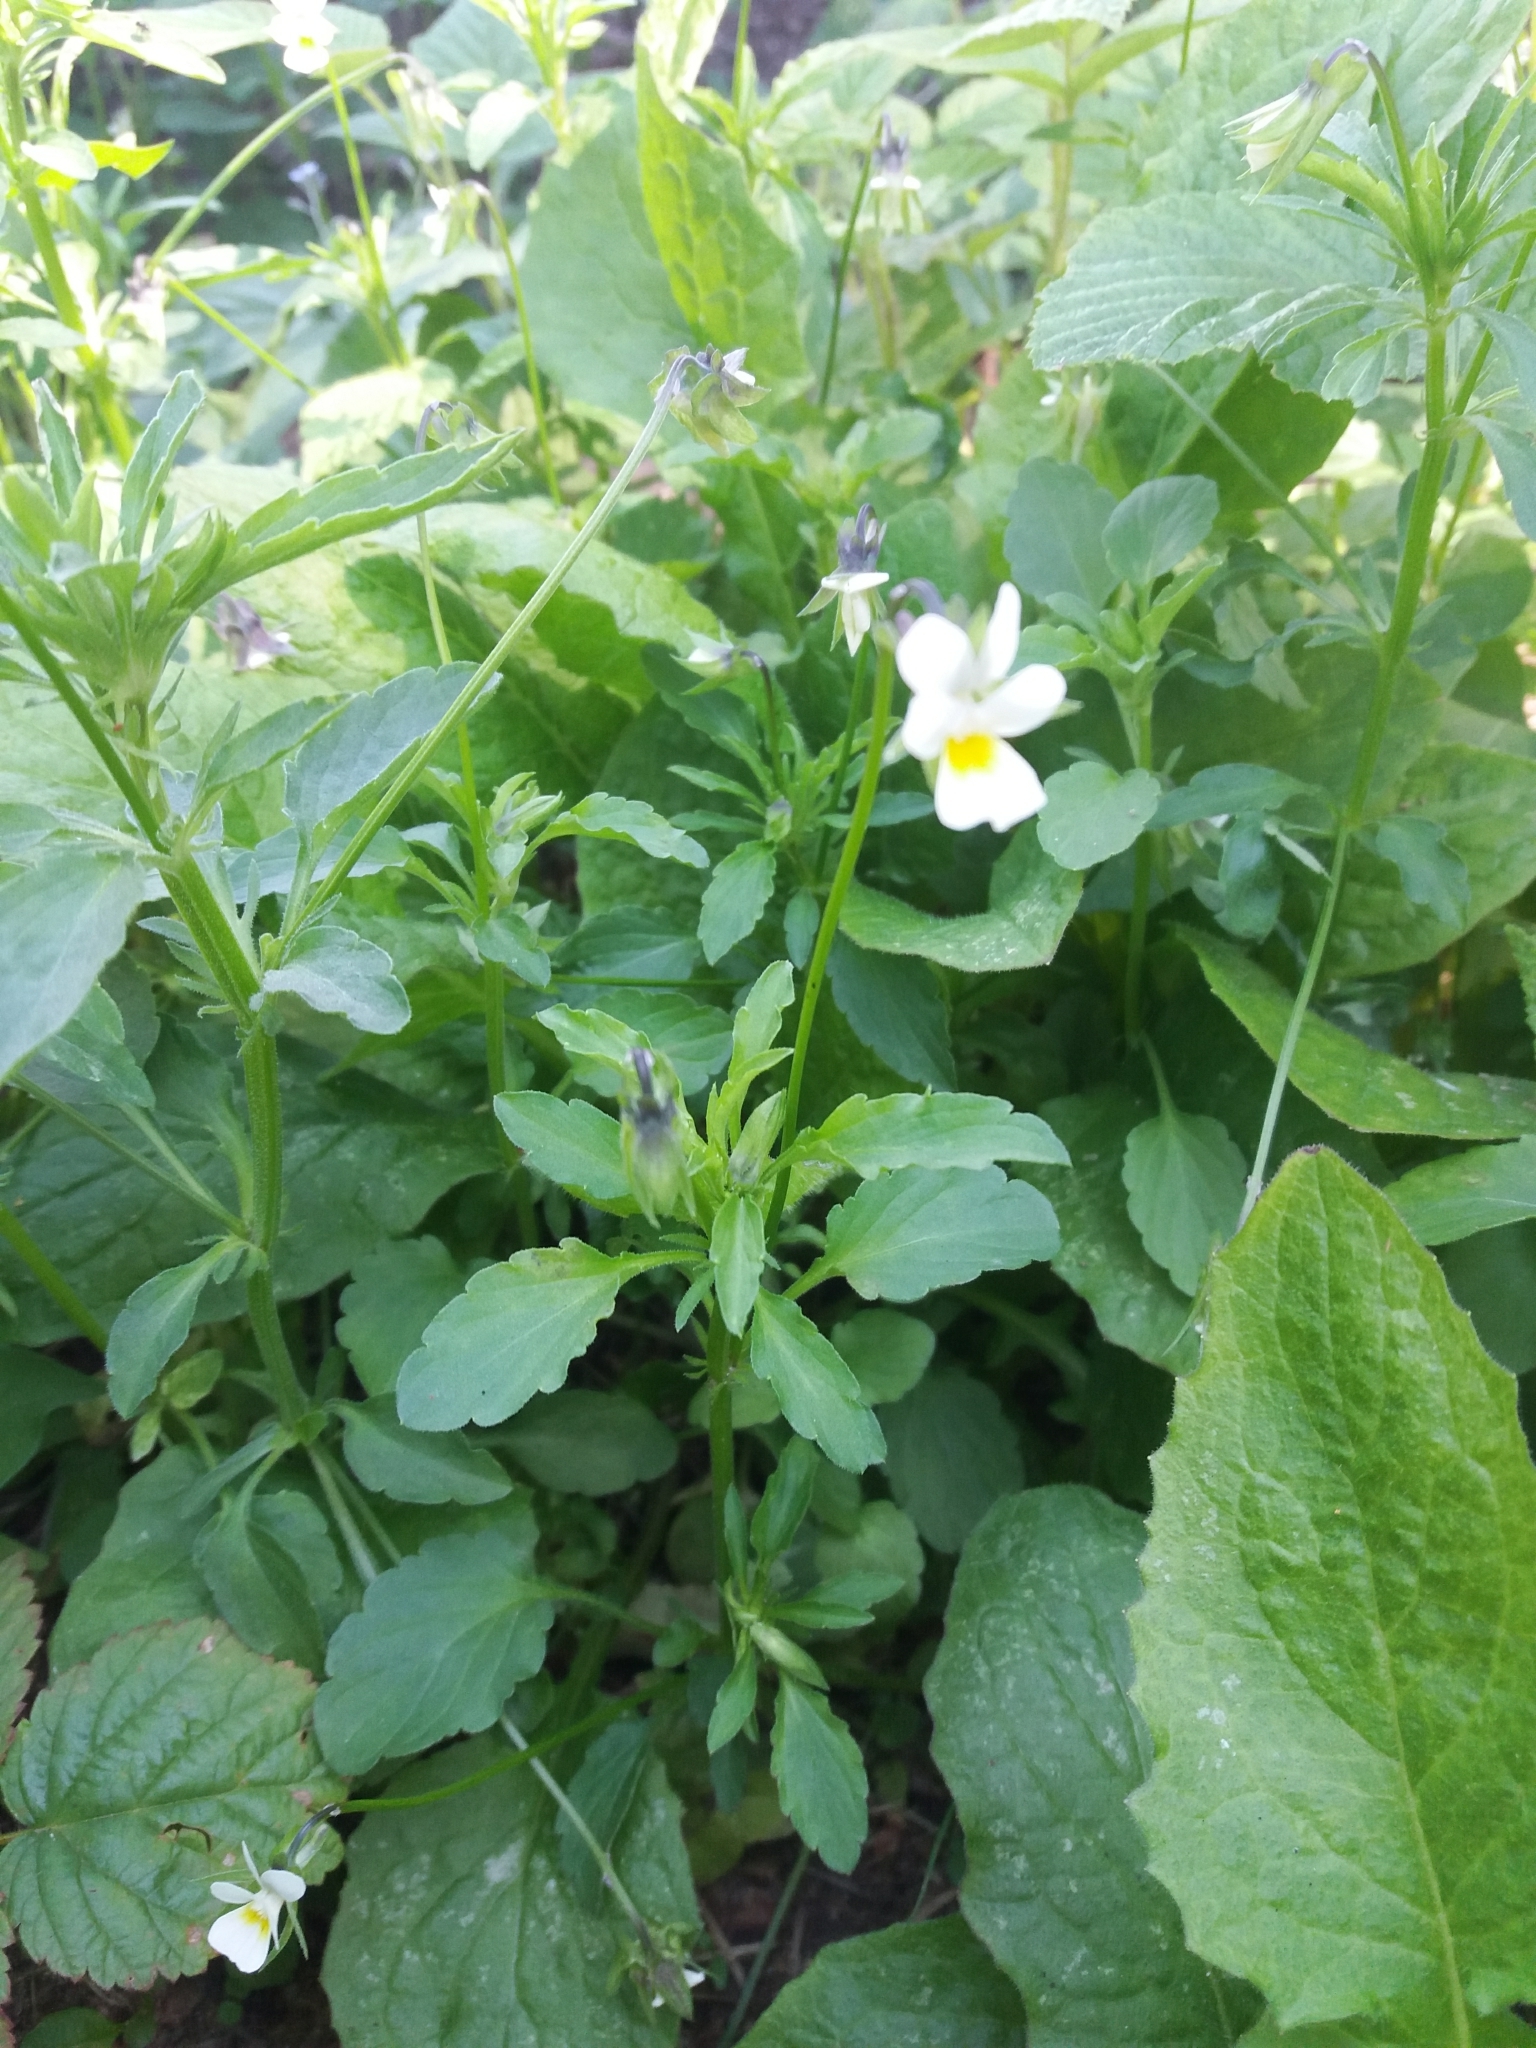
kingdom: Plantae
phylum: Tracheophyta
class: Magnoliopsida
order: Malpighiales
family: Violaceae
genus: Viola
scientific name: Viola arvensis
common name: Field pansy
